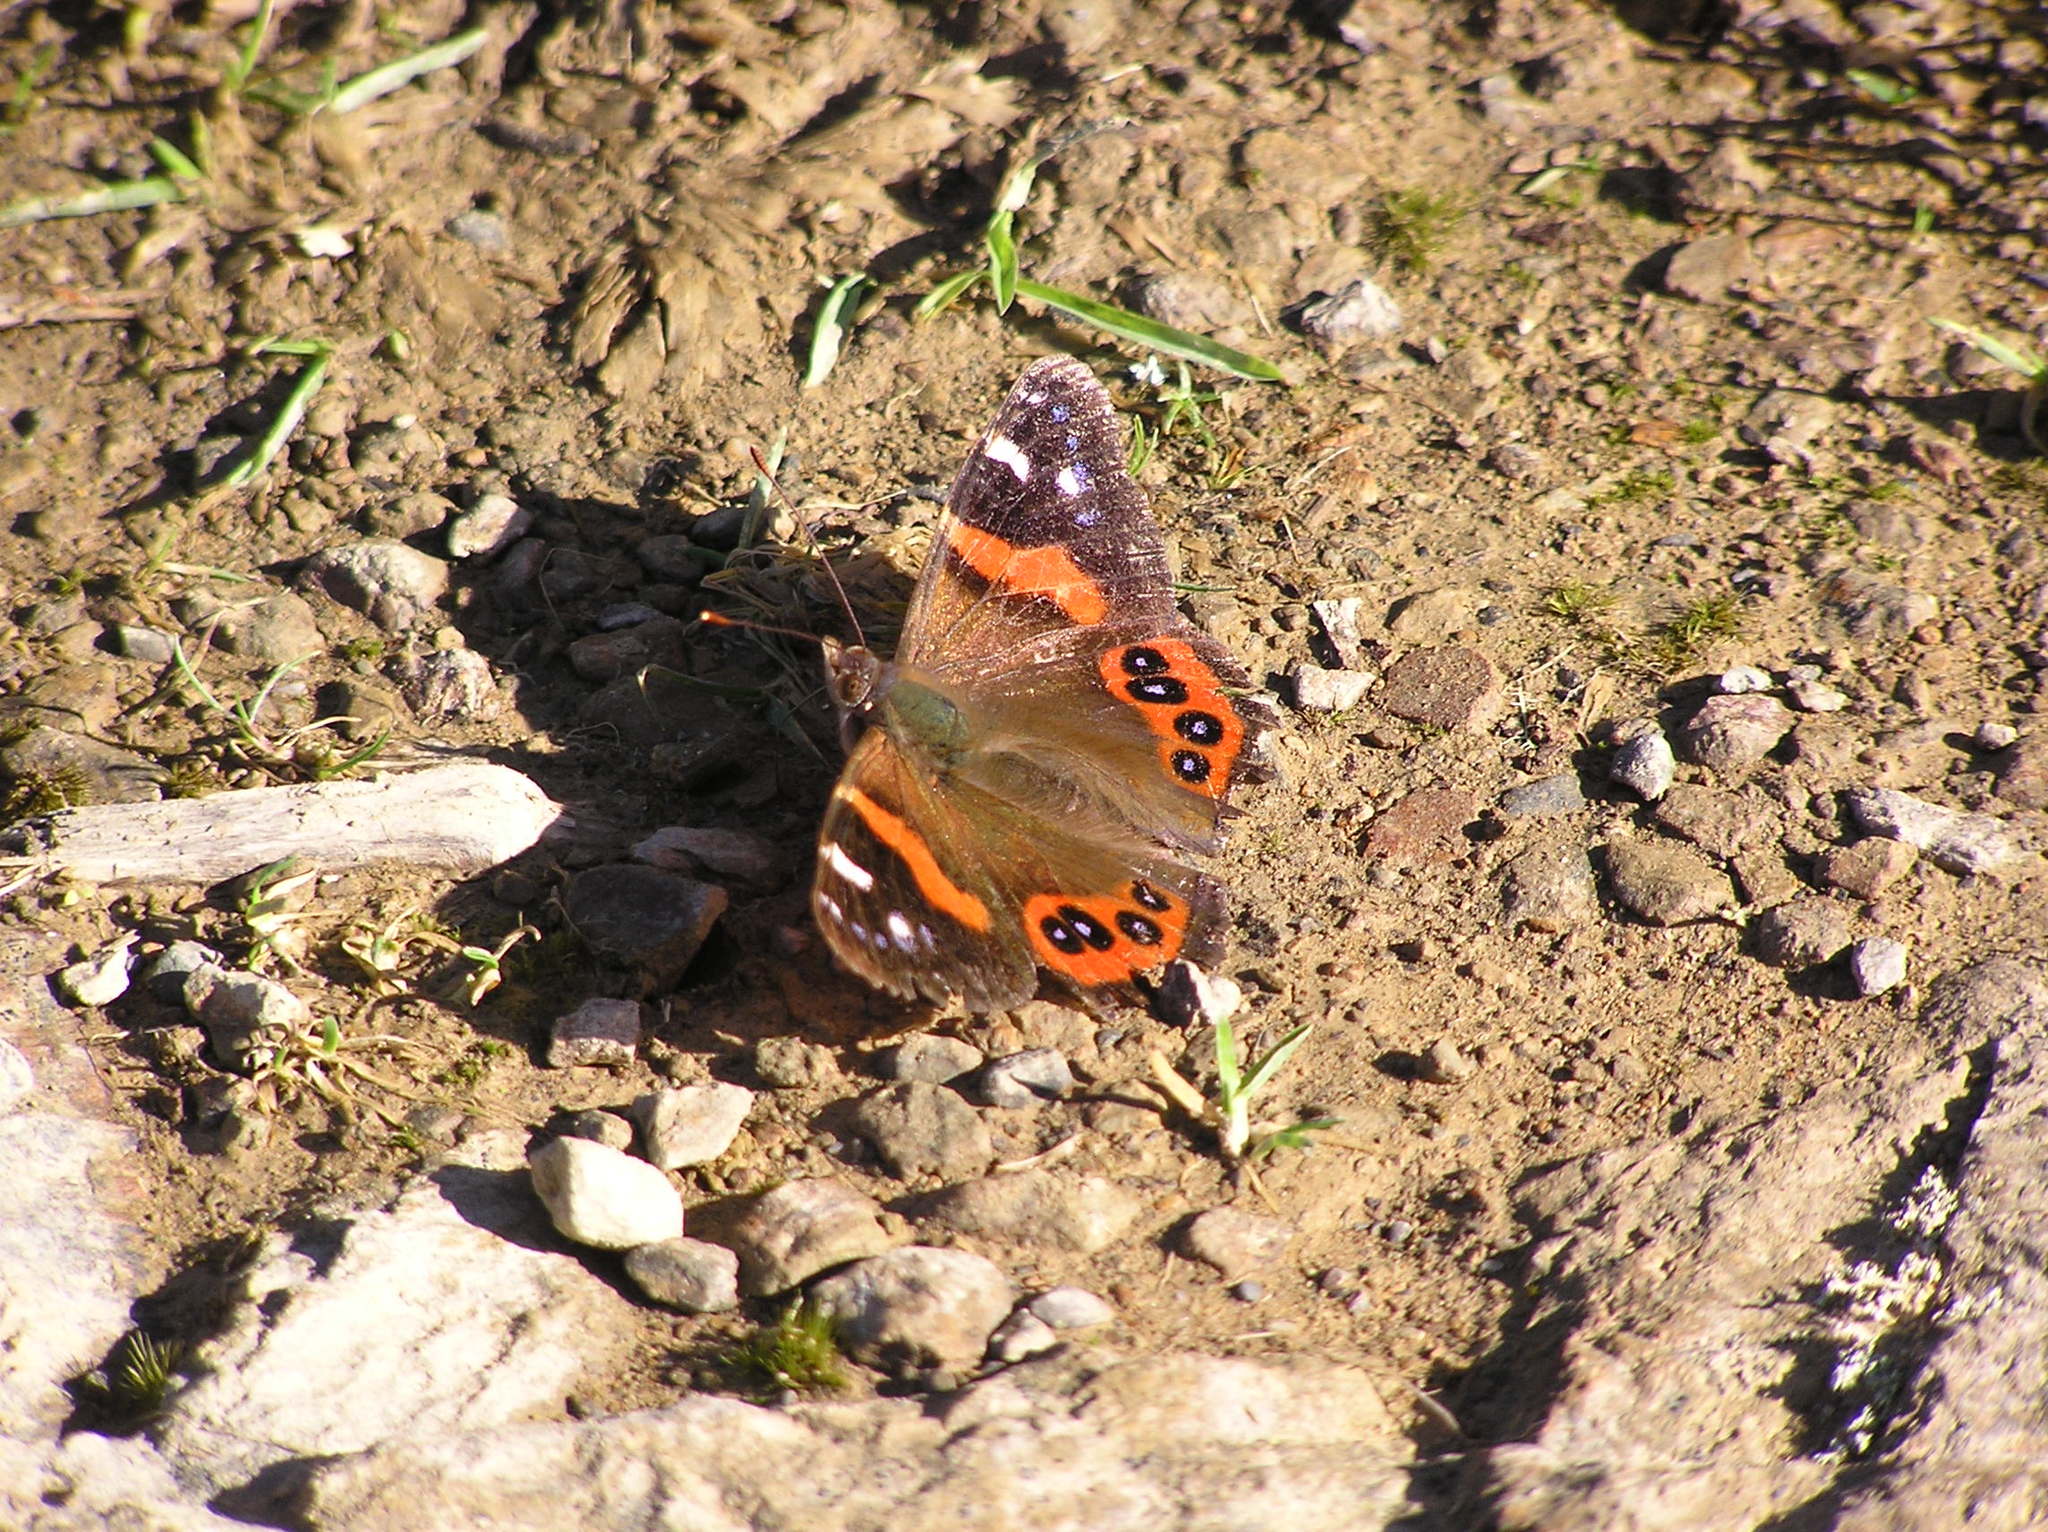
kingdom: Animalia
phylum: Arthropoda
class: Insecta
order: Lepidoptera
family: Nymphalidae
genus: Vanessa
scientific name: Vanessa gonerilla
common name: New zealand red admiral
